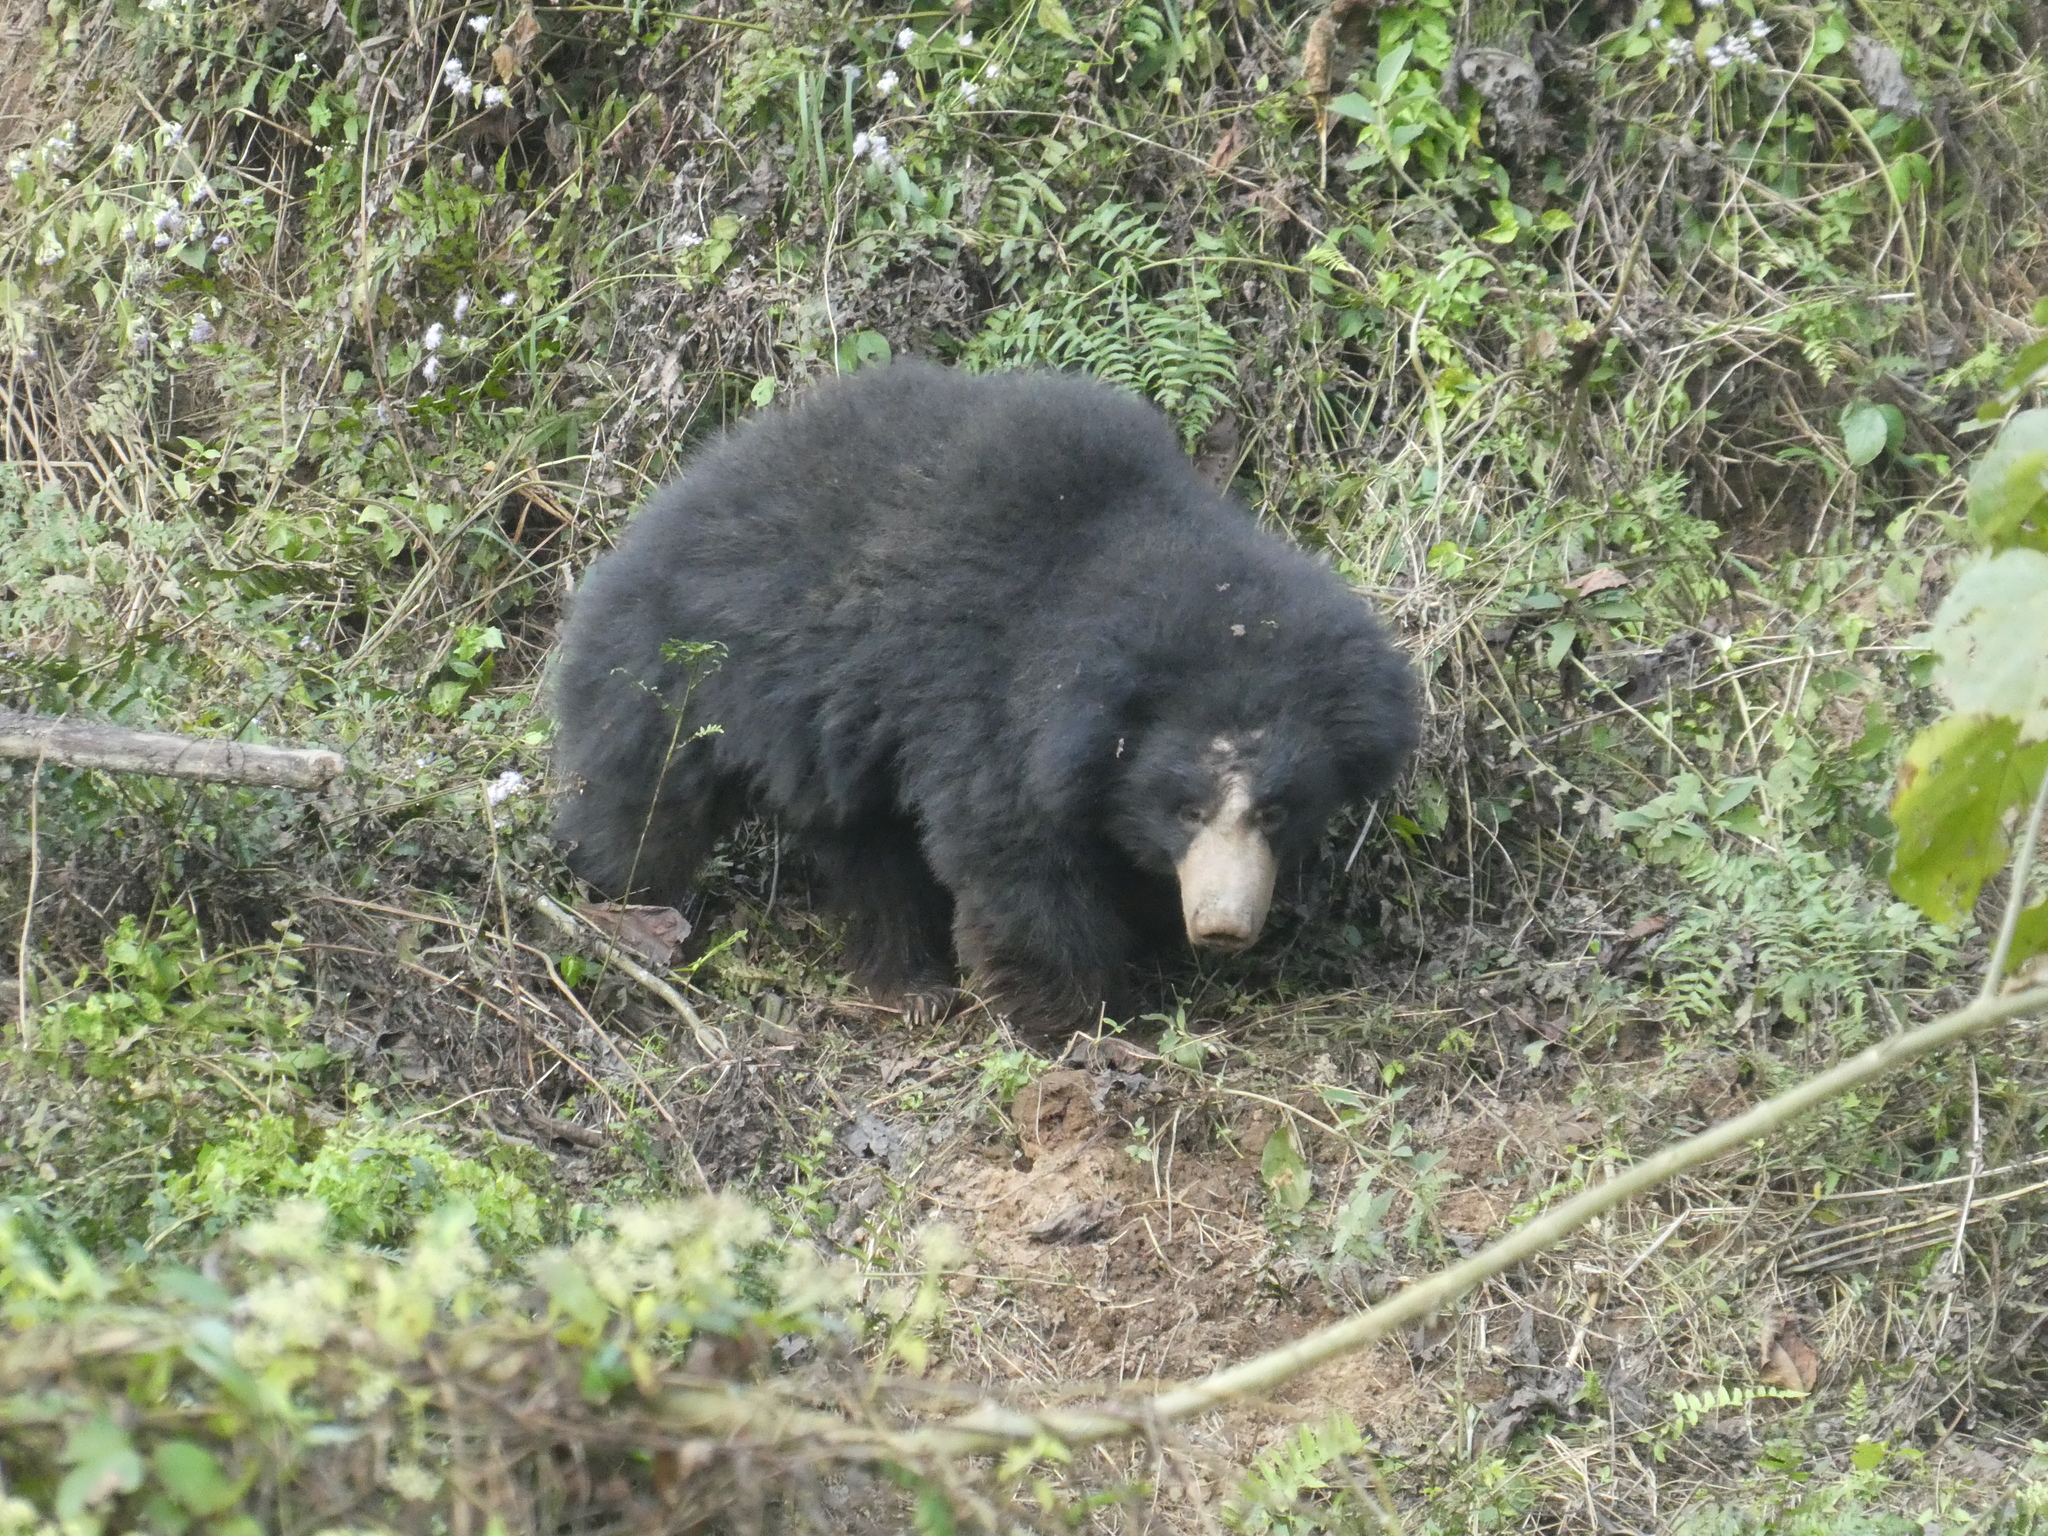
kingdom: Animalia
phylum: Chordata
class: Mammalia
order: Carnivora
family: Ursidae
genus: Melursus
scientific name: Melursus ursinus
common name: Sloth bear
